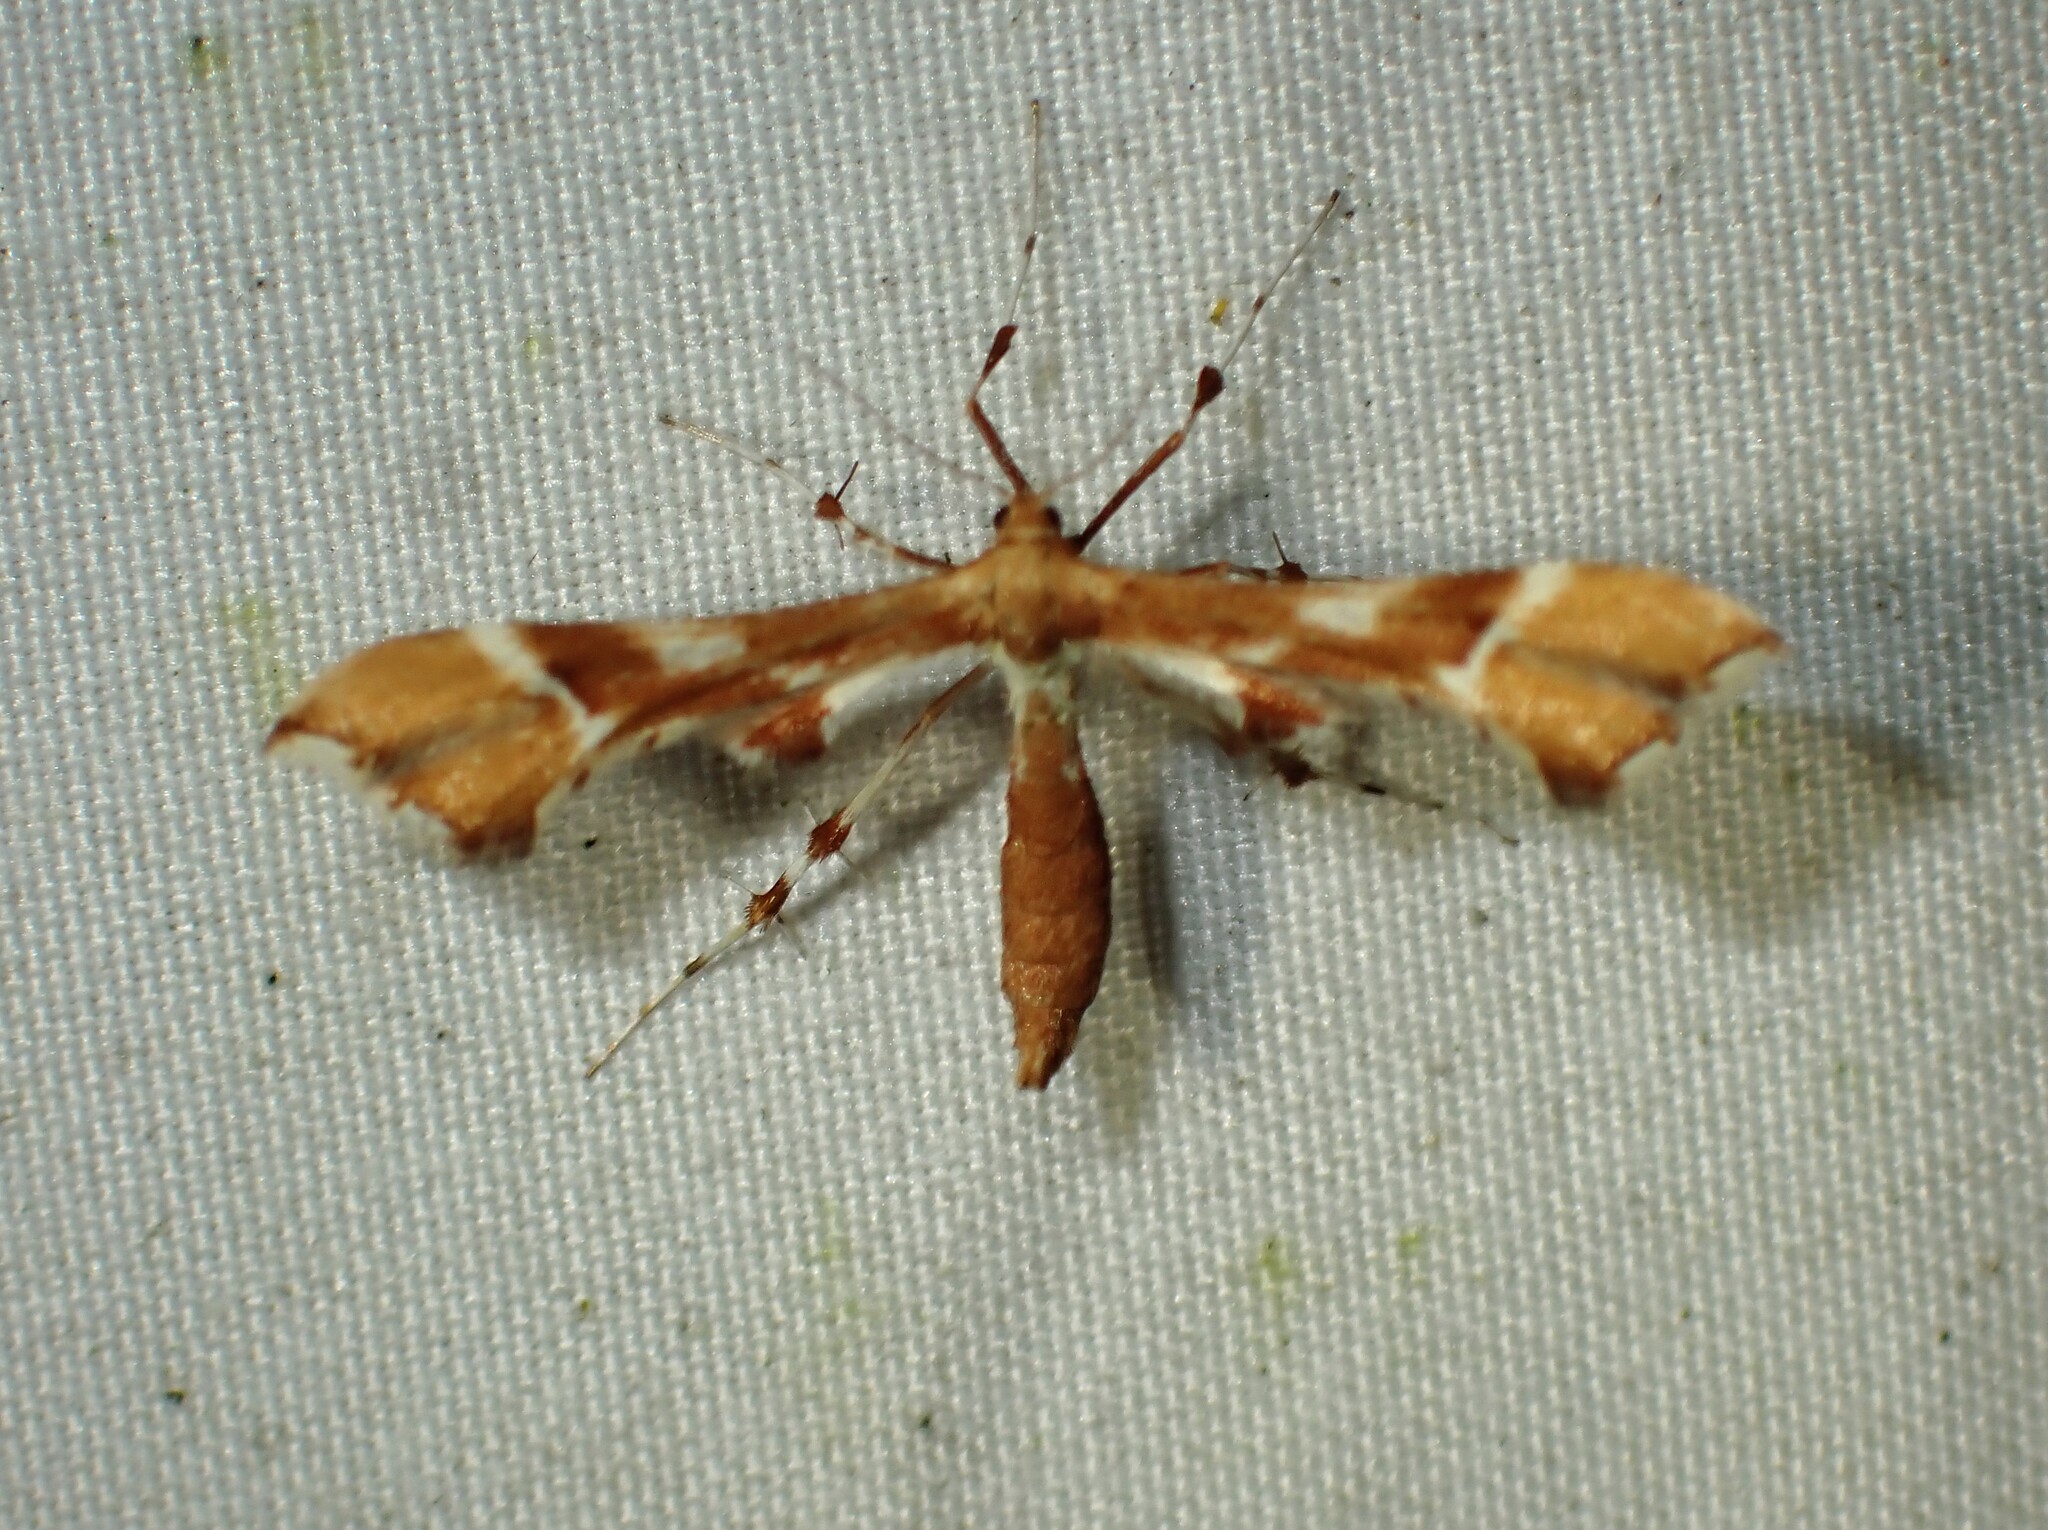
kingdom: Animalia
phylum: Arthropoda
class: Insecta
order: Lepidoptera
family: Pterophoridae
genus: Cnaemidophorus
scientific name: Cnaemidophorus rhododactyla
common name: Rose plume
